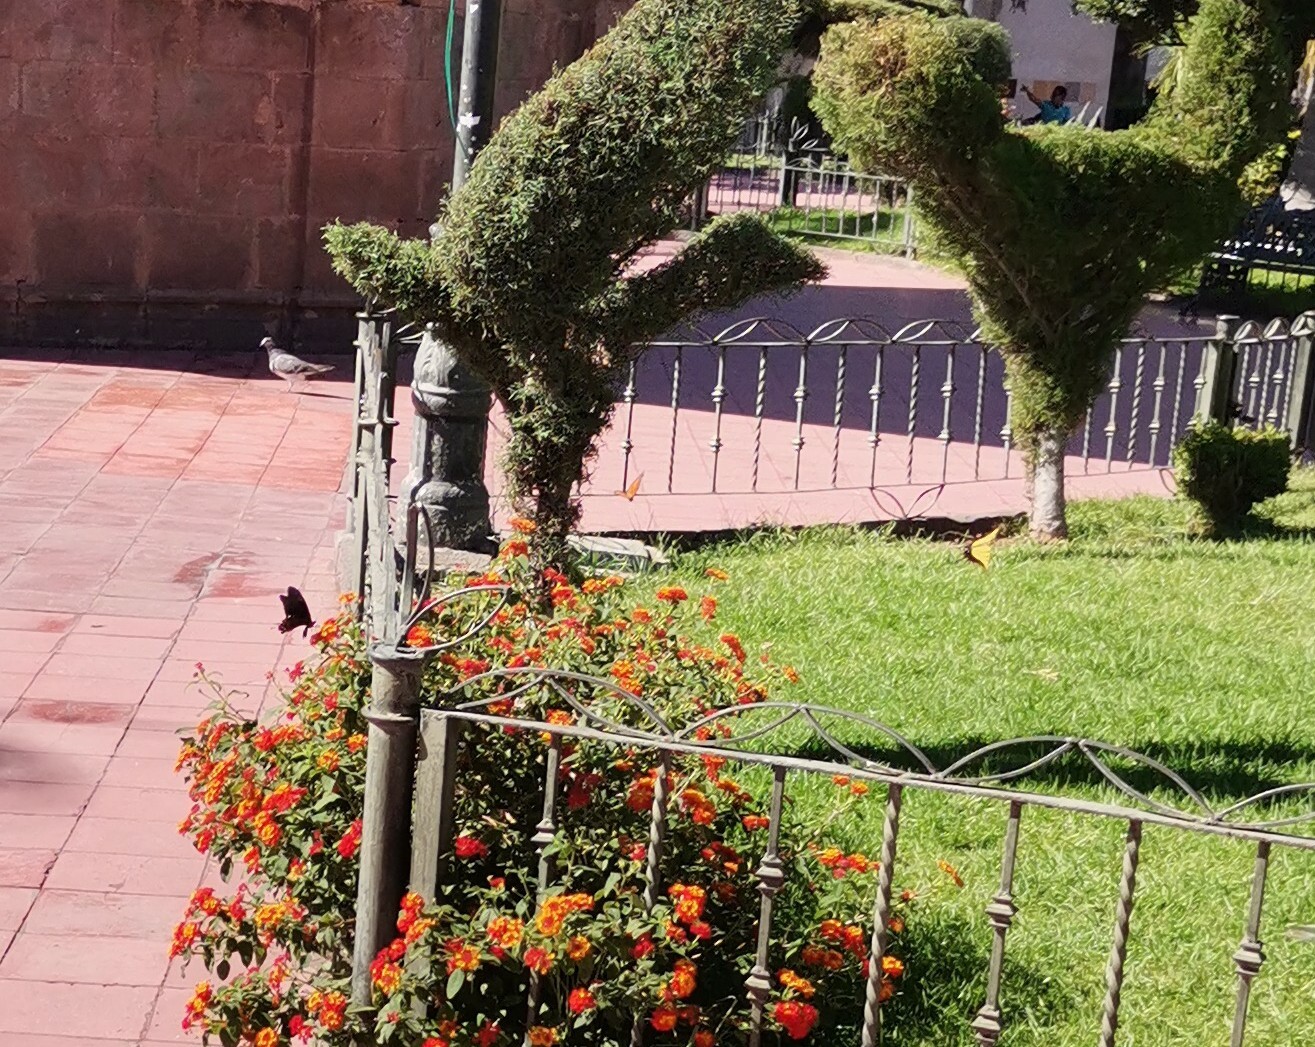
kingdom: Animalia
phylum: Arthropoda
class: Insecta
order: Lepidoptera
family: Papilionidae
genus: Heraclides
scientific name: Heraclides rogeri
